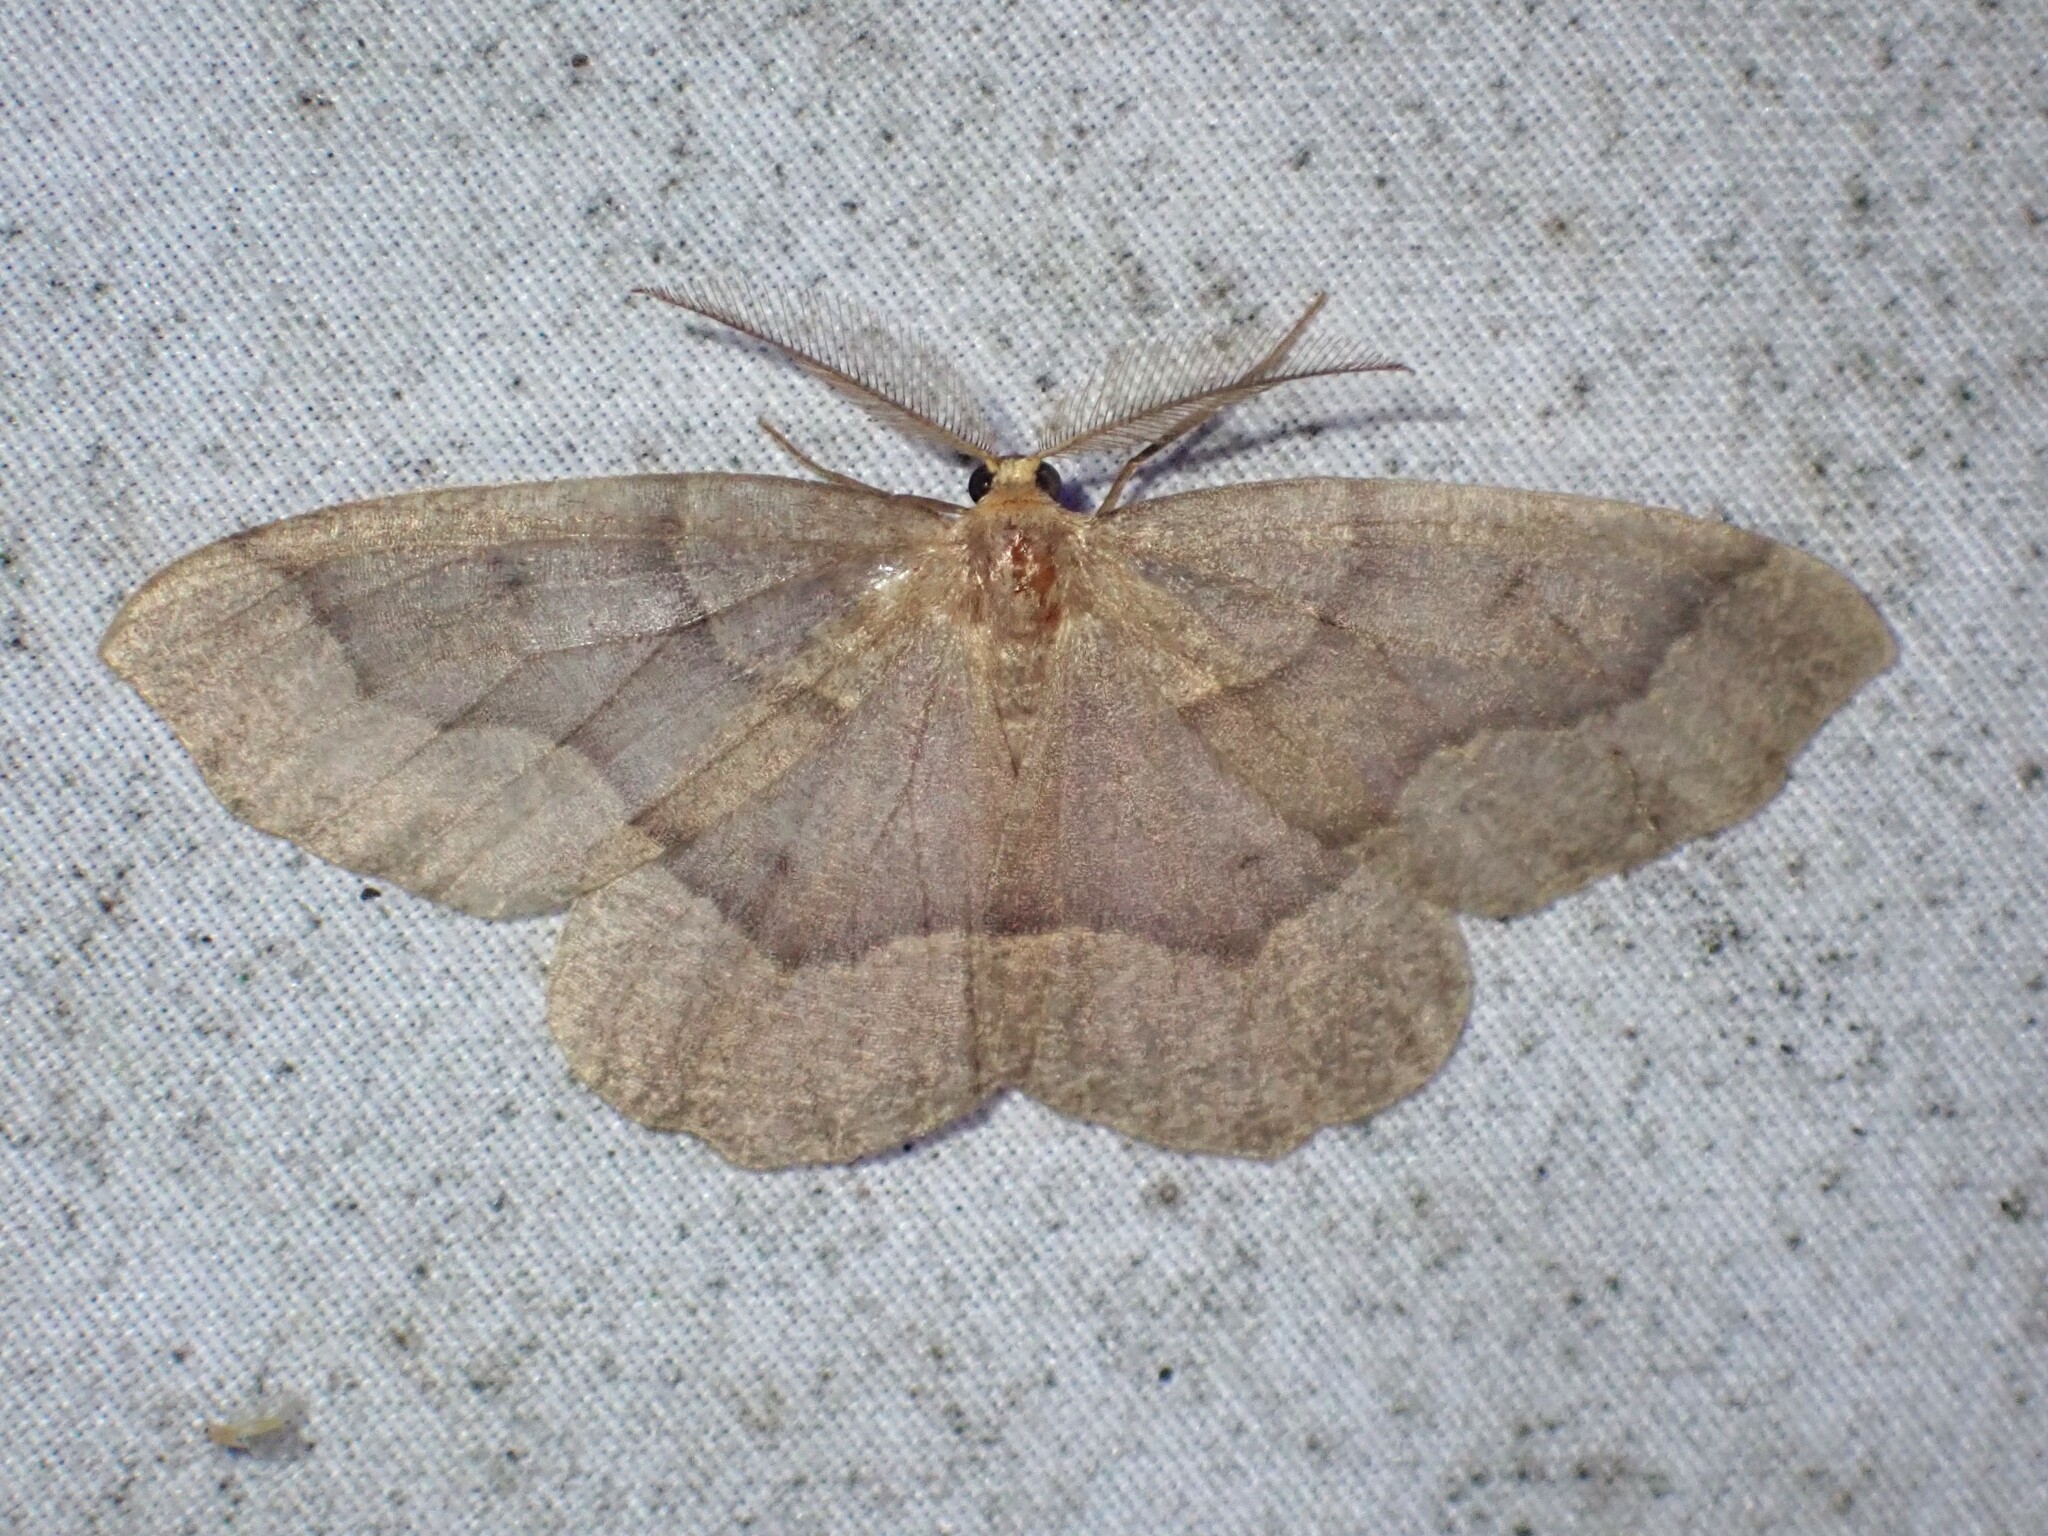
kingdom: Animalia
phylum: Arthropoda
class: Insecta
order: Lepidoptera
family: Geometridae
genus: Lambdina
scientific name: Lambdina fiscellaria
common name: Hemlock looper
